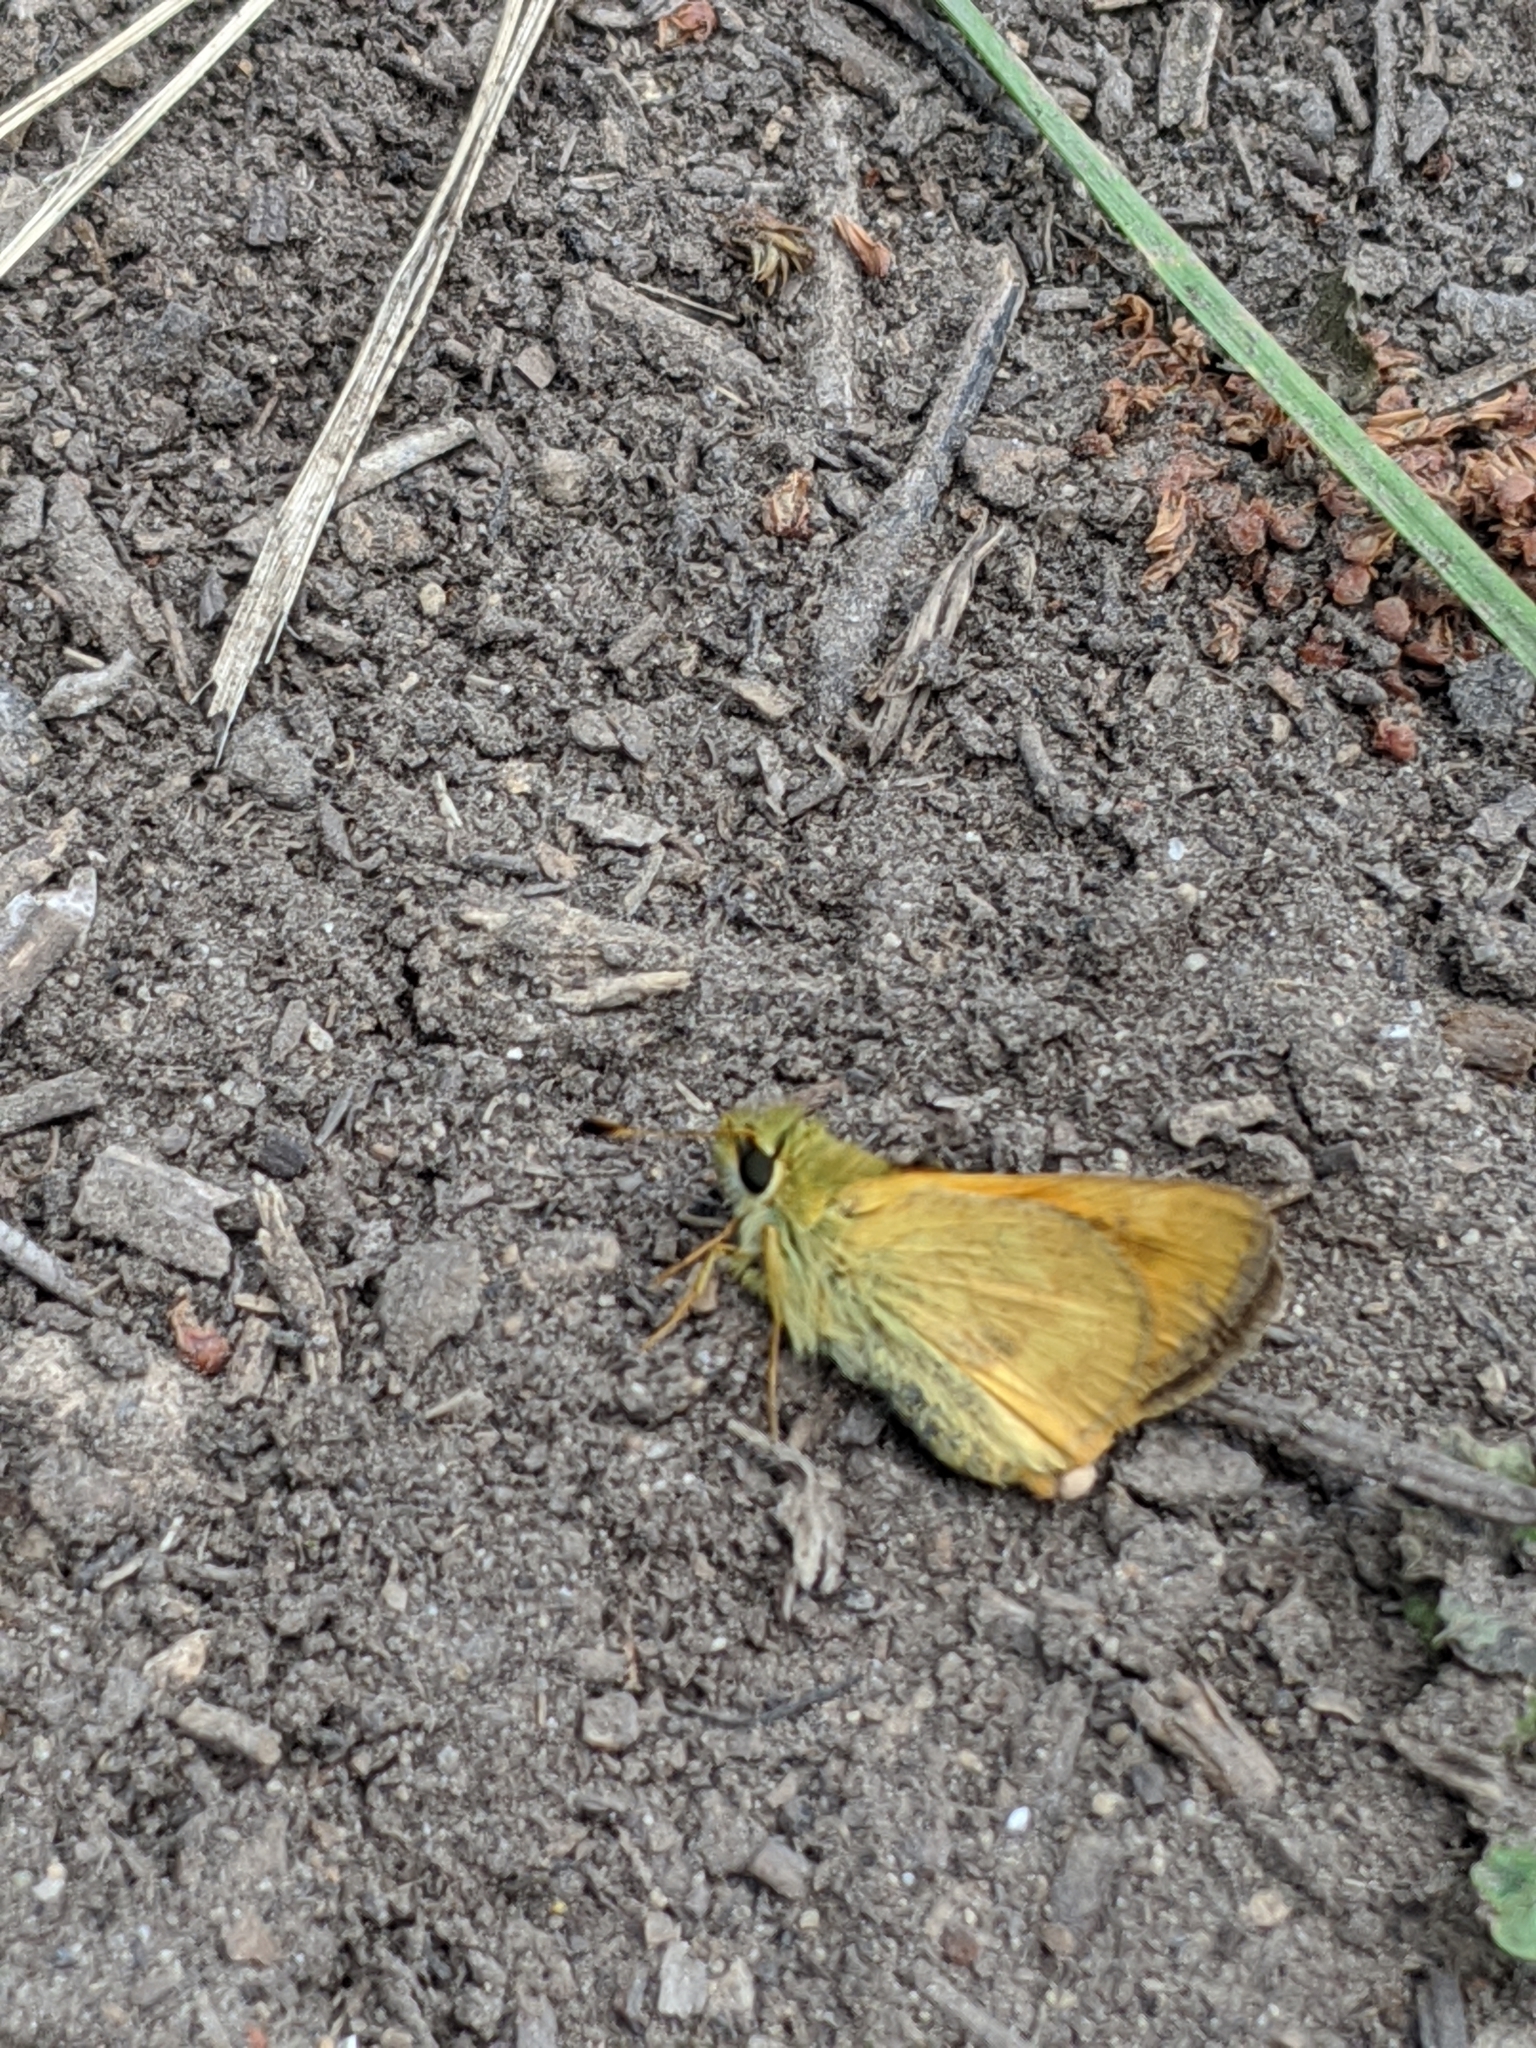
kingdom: Animalia
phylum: Arthropoda
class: Insecta
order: Lepidoptera
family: Hesperiidae
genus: Ochlodes
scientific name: Ochlodes sylvanoides
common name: Woodland skipper
